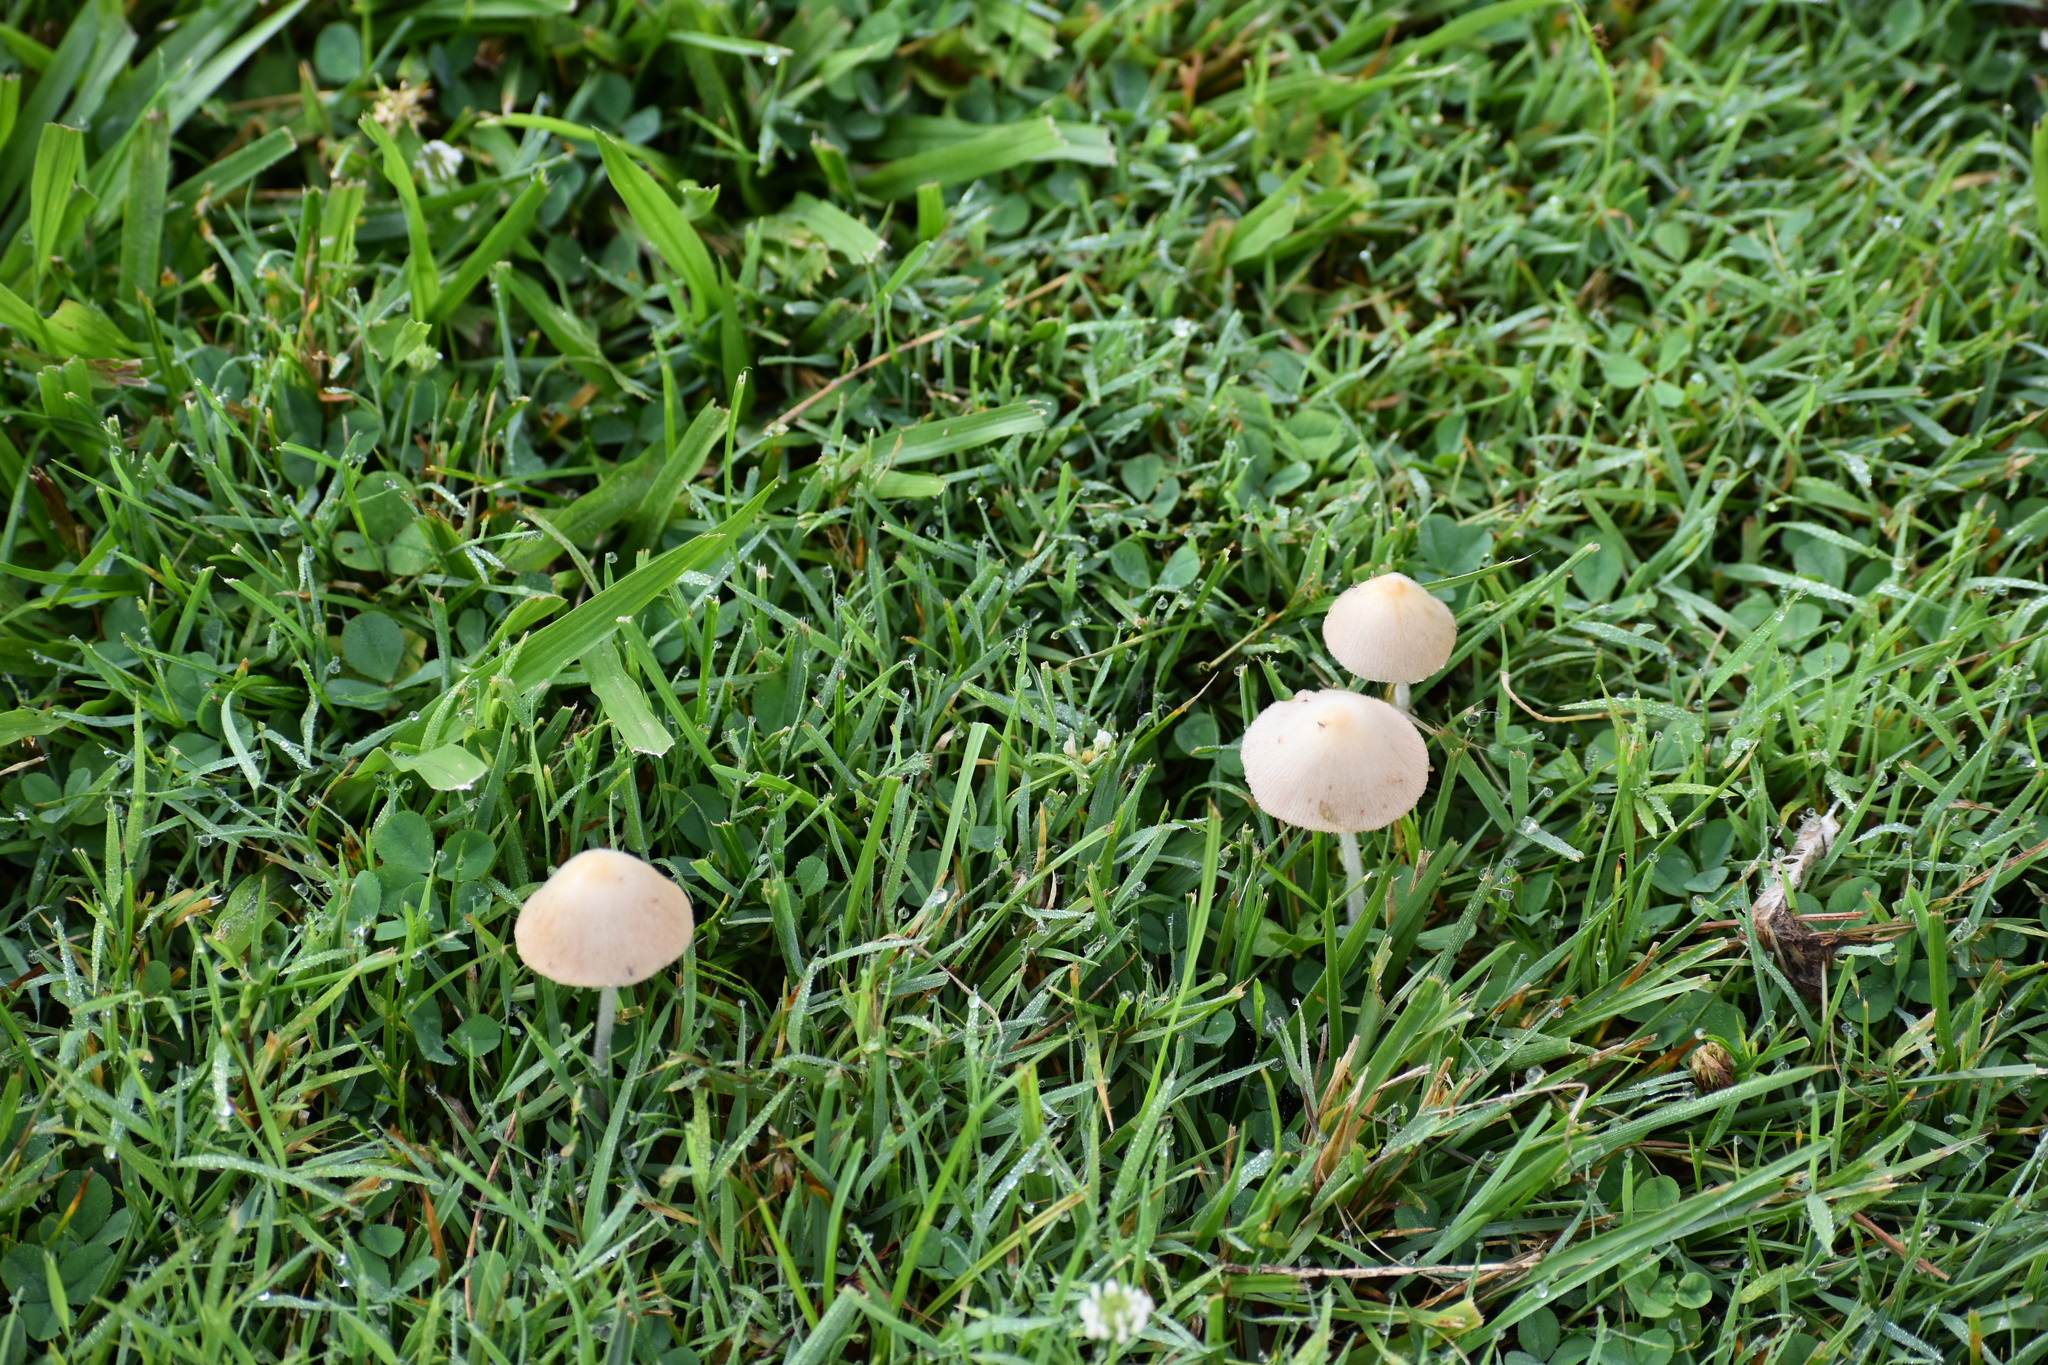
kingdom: Fungi
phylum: Basidiomycota
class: Agaricomycetes
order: Agaricales
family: Bolbitiaceae
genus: Conocybe
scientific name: Conocybe apala
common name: Milky conecap
